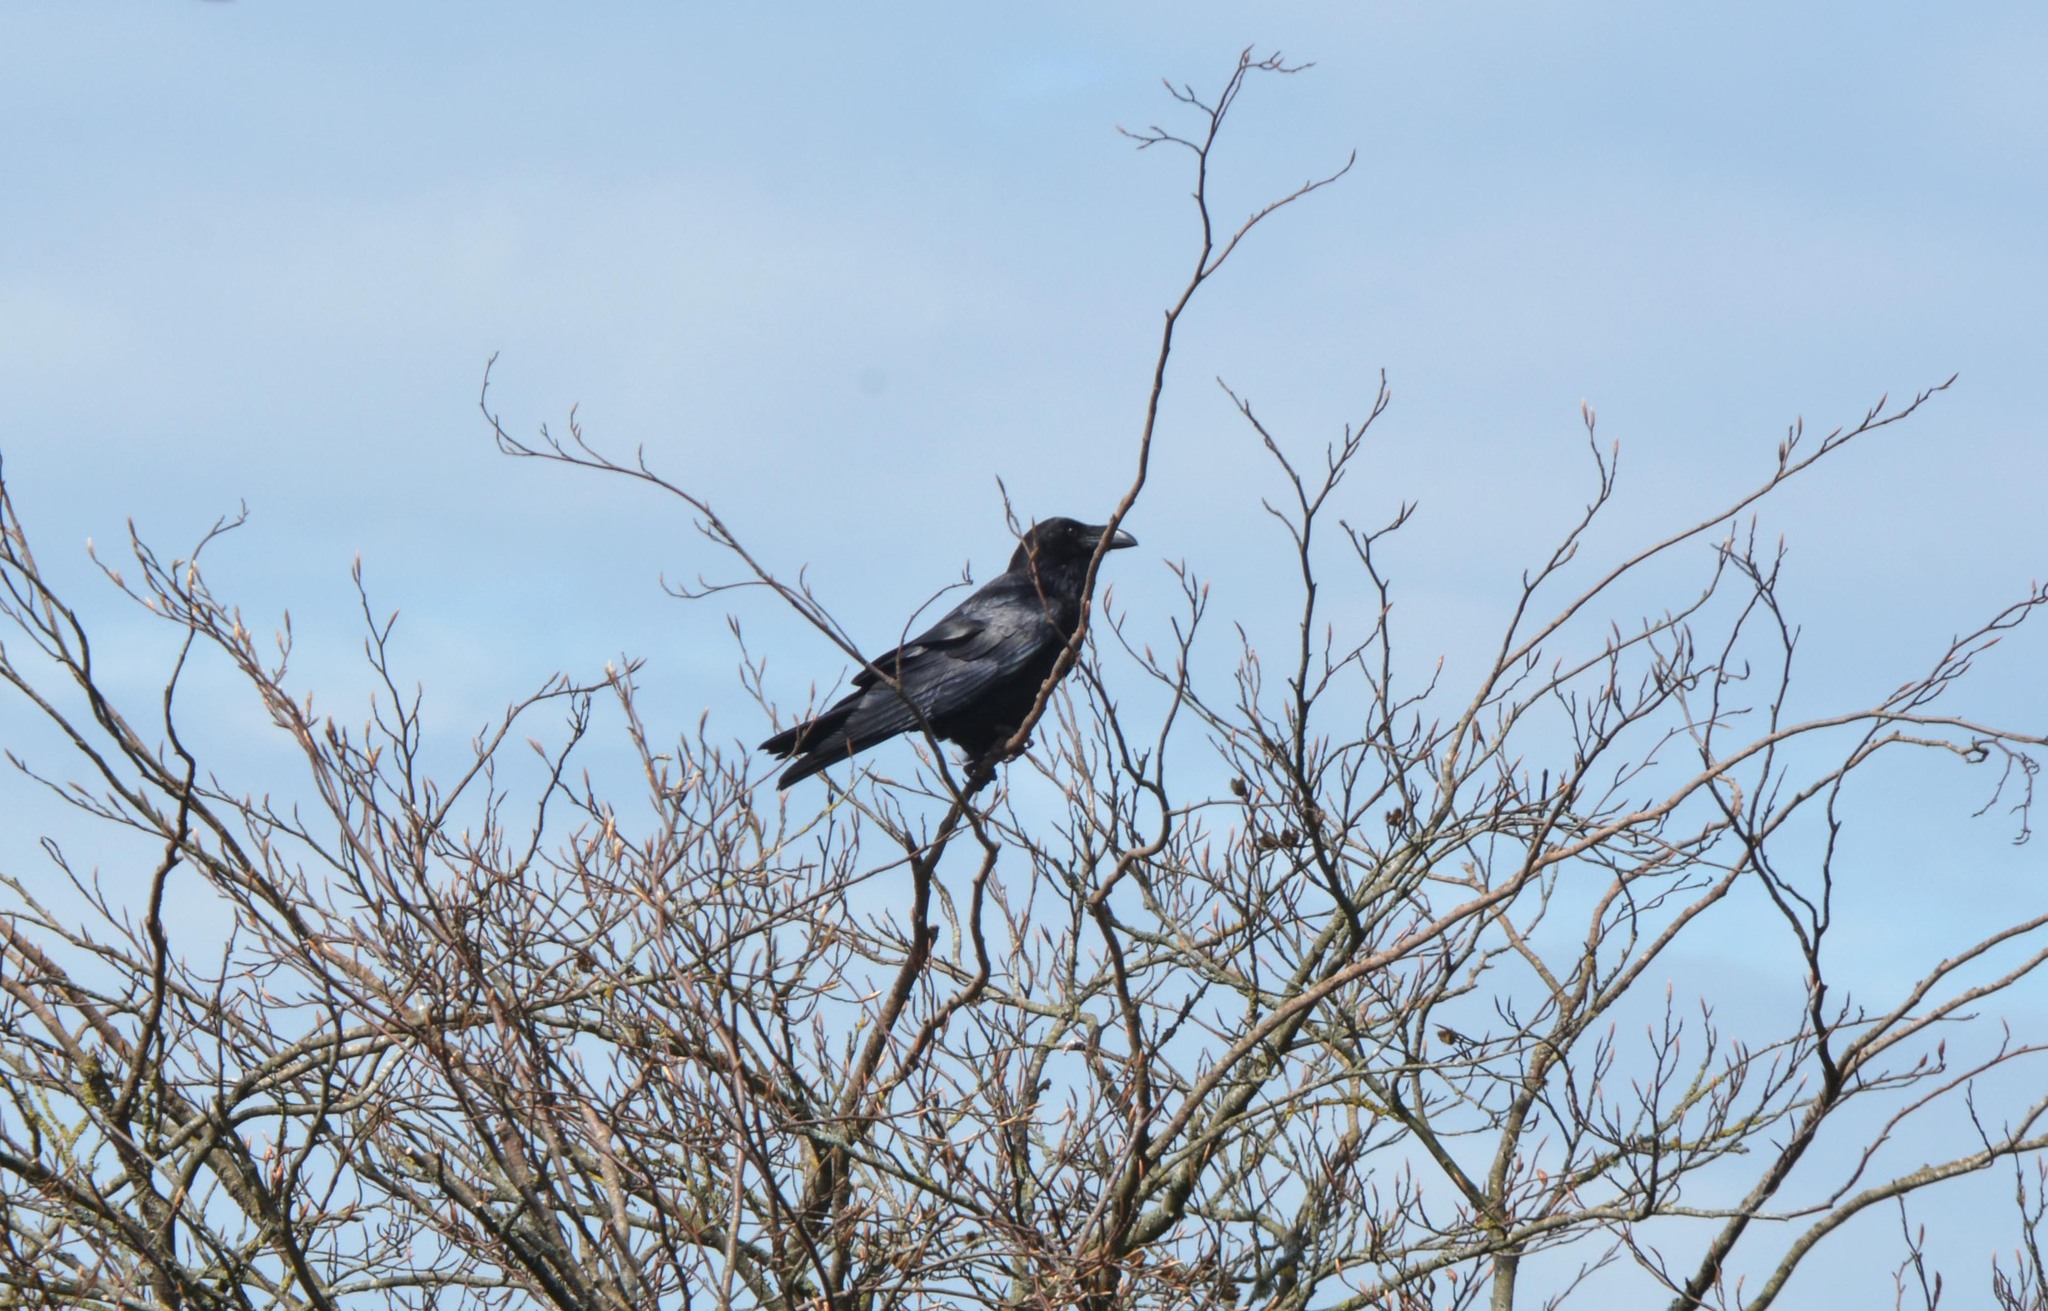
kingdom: Animalia
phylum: Chordata
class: Aves
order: Passeriformes
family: Corvidae
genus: Corvus
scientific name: Corvus corax
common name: Common raven
